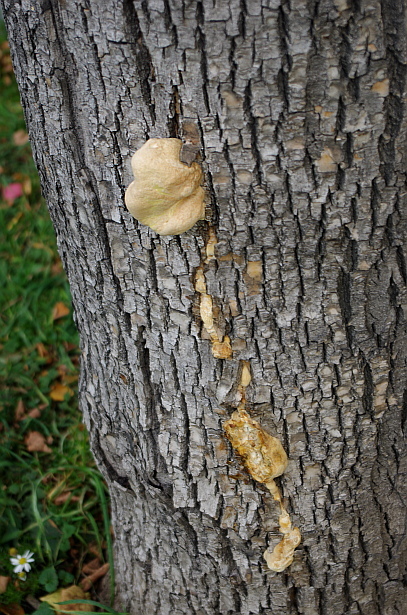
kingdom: Fungi
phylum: Basidiomycota
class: Agaricomycetes
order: Polyporales
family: Laetiporaceae
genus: Laetiporus
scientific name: Laetiporus sulphureus
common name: Chicken of the woods
